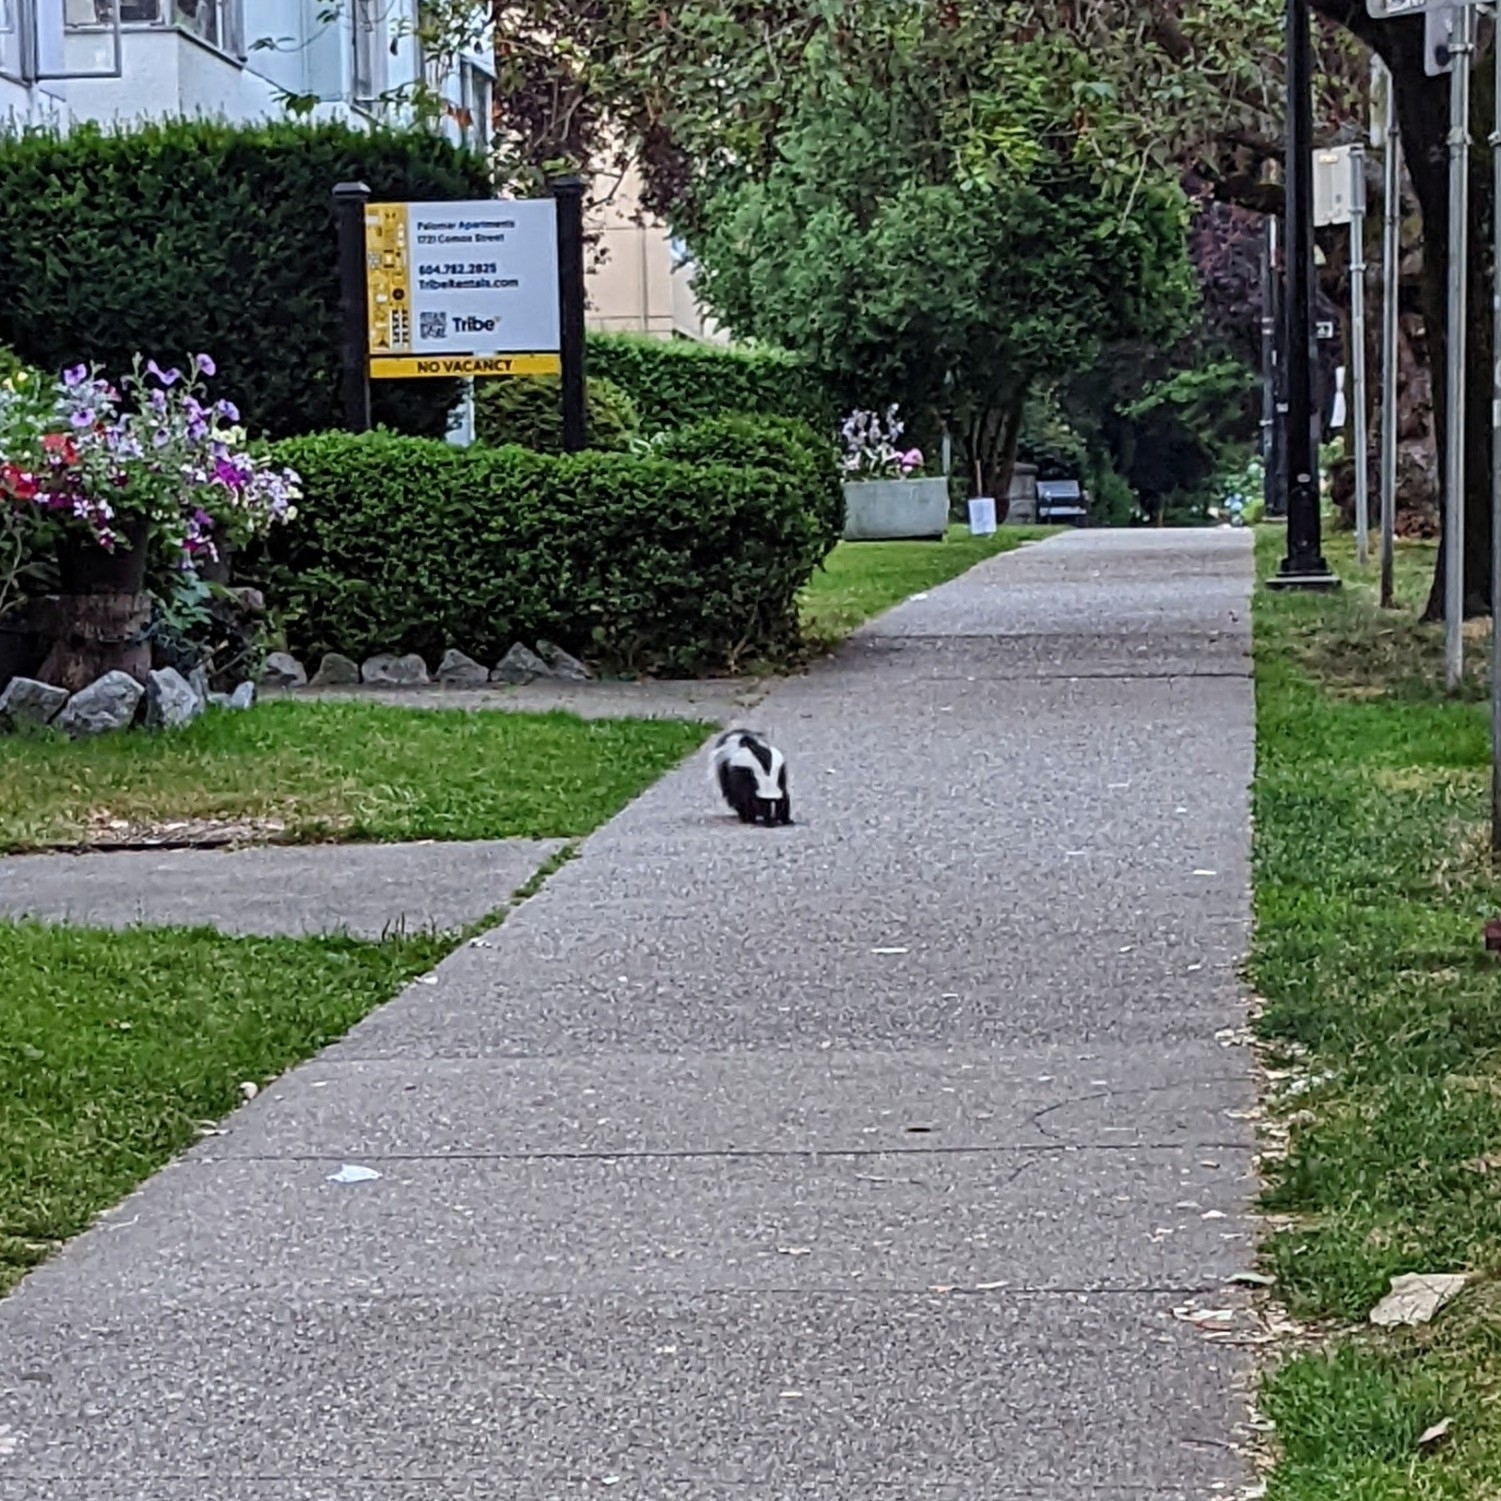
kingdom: Animalia
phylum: Chordata
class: Mammalia
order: Carnivora
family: Mephitidae
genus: Mephitis
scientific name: Mephitis mephitis
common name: Striped skunk
